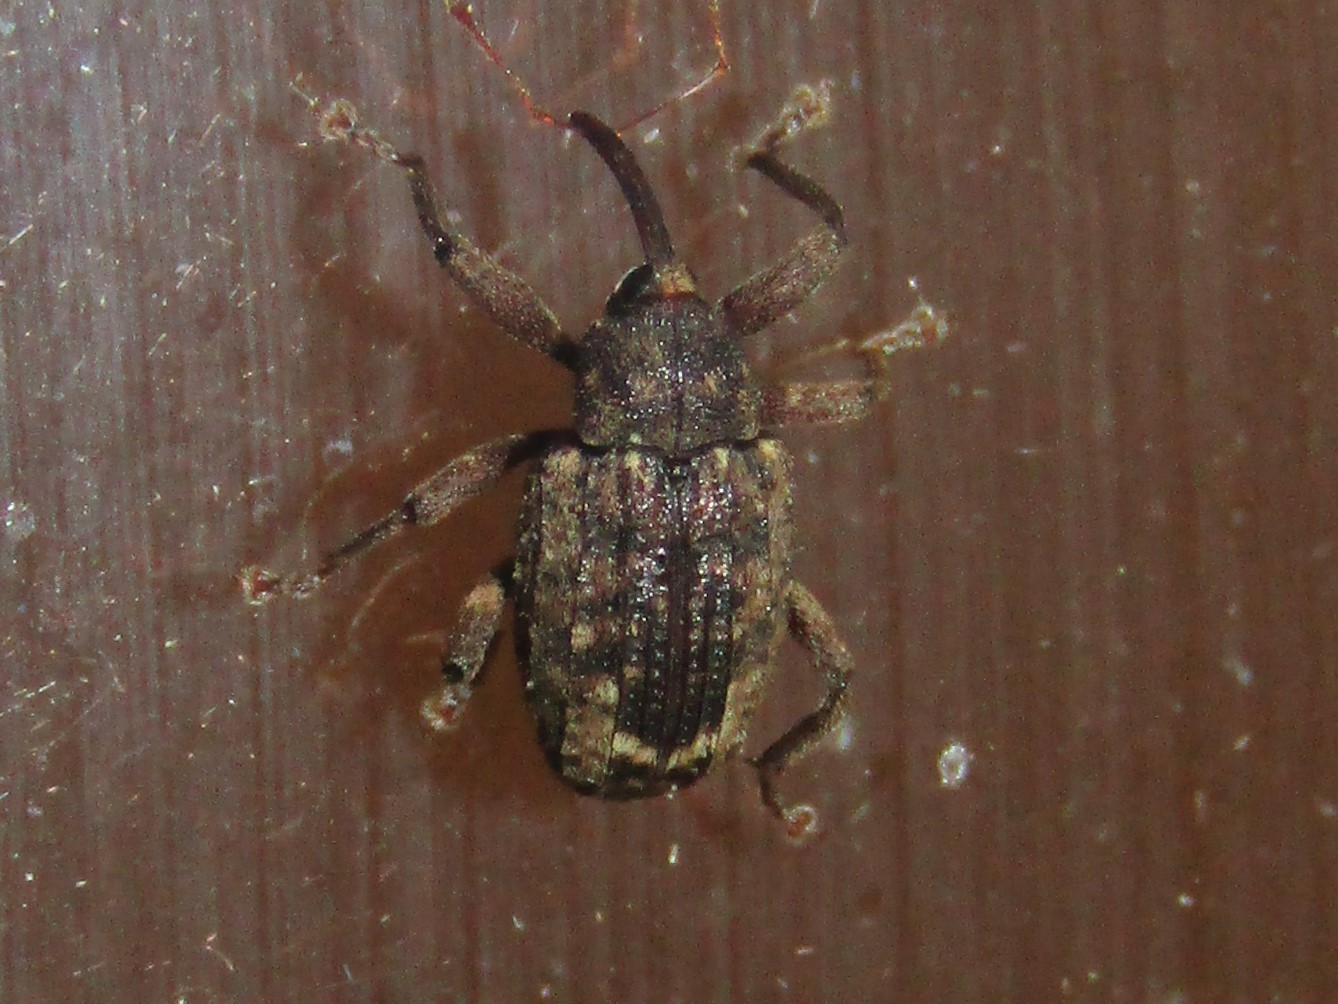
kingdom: Animalia
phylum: Arthropoda
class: Insecta
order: Coleoptera
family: Curculionidae
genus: Conotrachelus
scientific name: Conotrachelus posticatus
